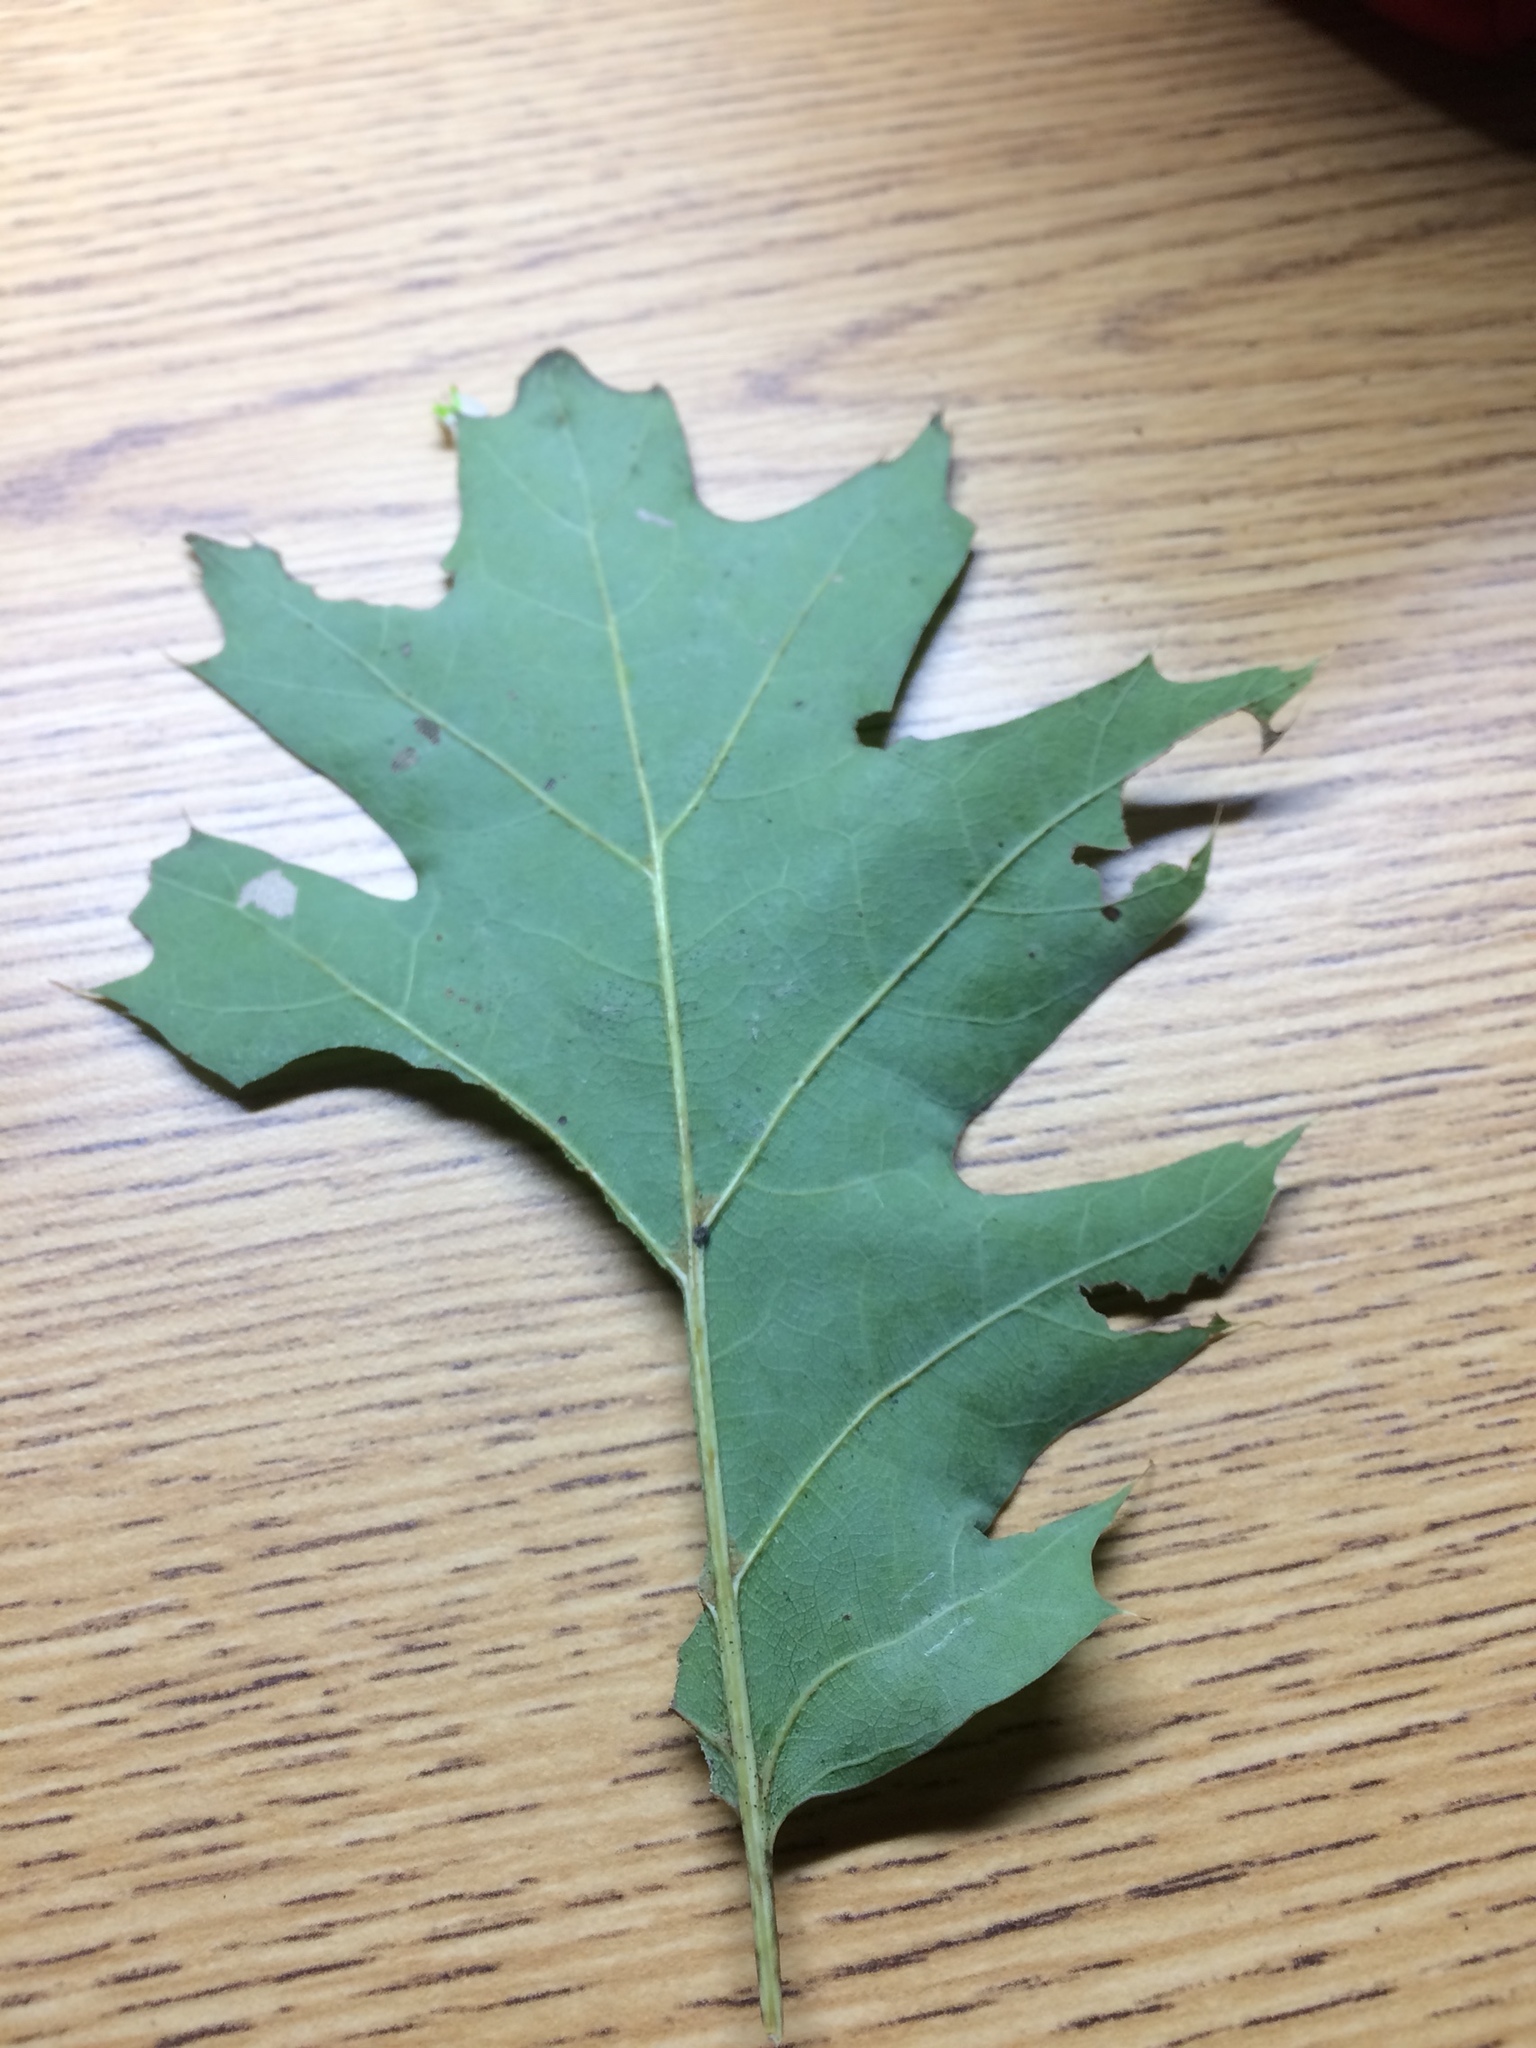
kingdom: Plantae
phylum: Tracheophyta
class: Magnoliopsida
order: Fagales
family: Fagaceae
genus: Quercus
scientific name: Quercus rubra
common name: Red oak
